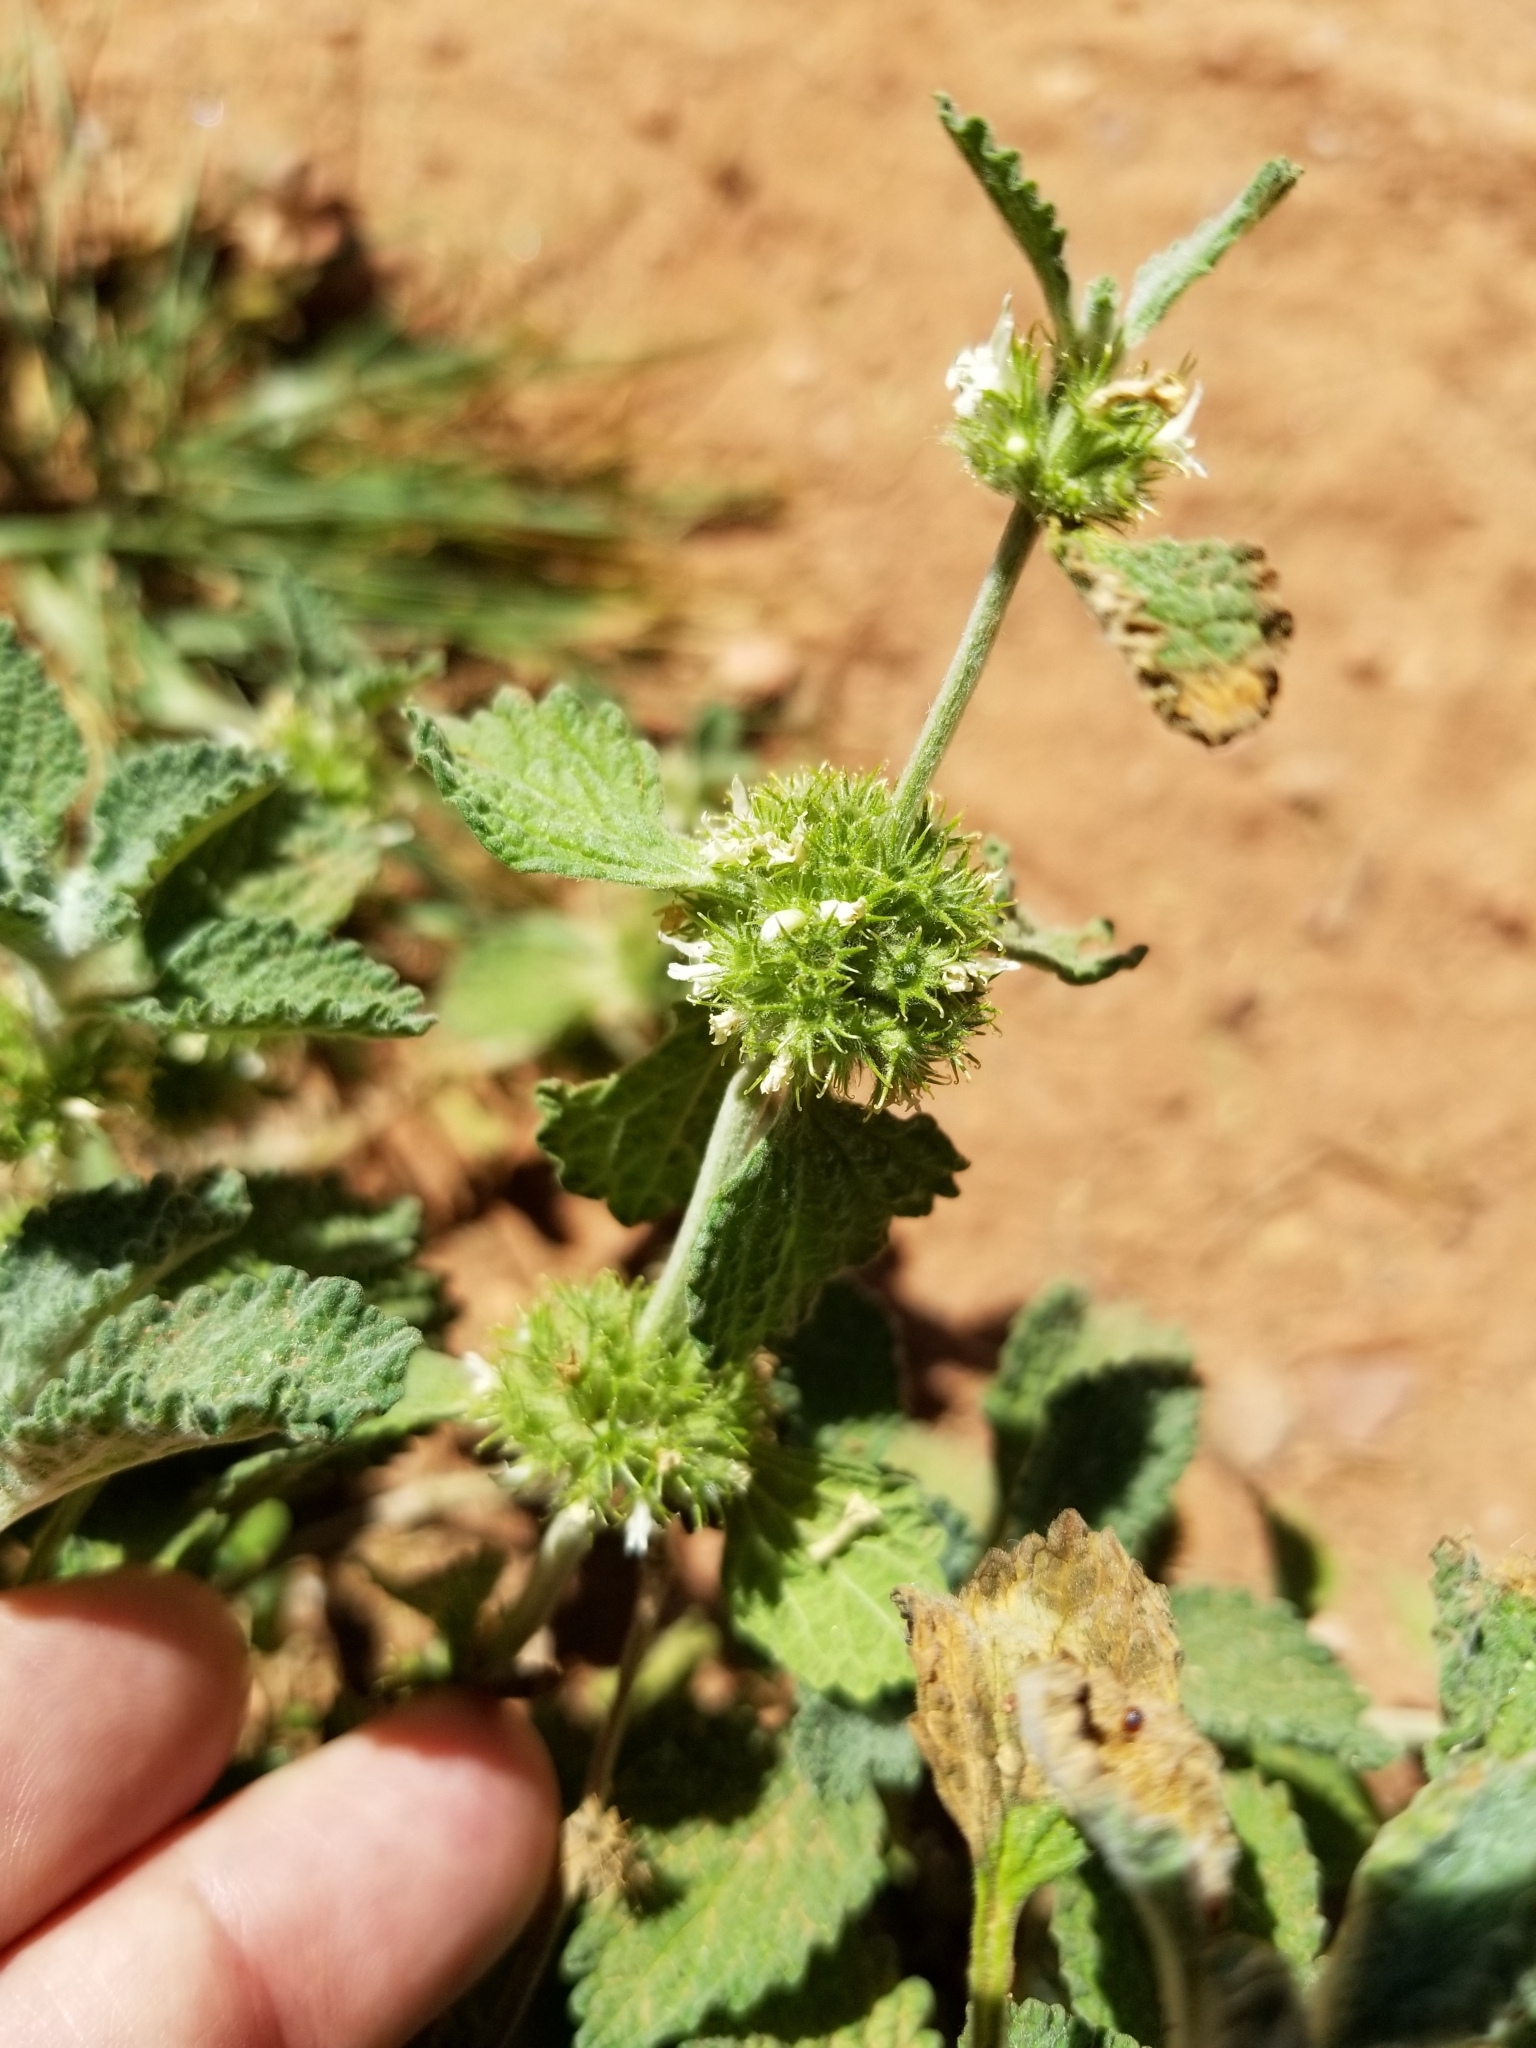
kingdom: Plantae
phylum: Tracheophyta
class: Magnoliopsida
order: Lamiales
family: Lamiaceae
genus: Marrubium
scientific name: Marrubium vulgare
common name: Horehound
